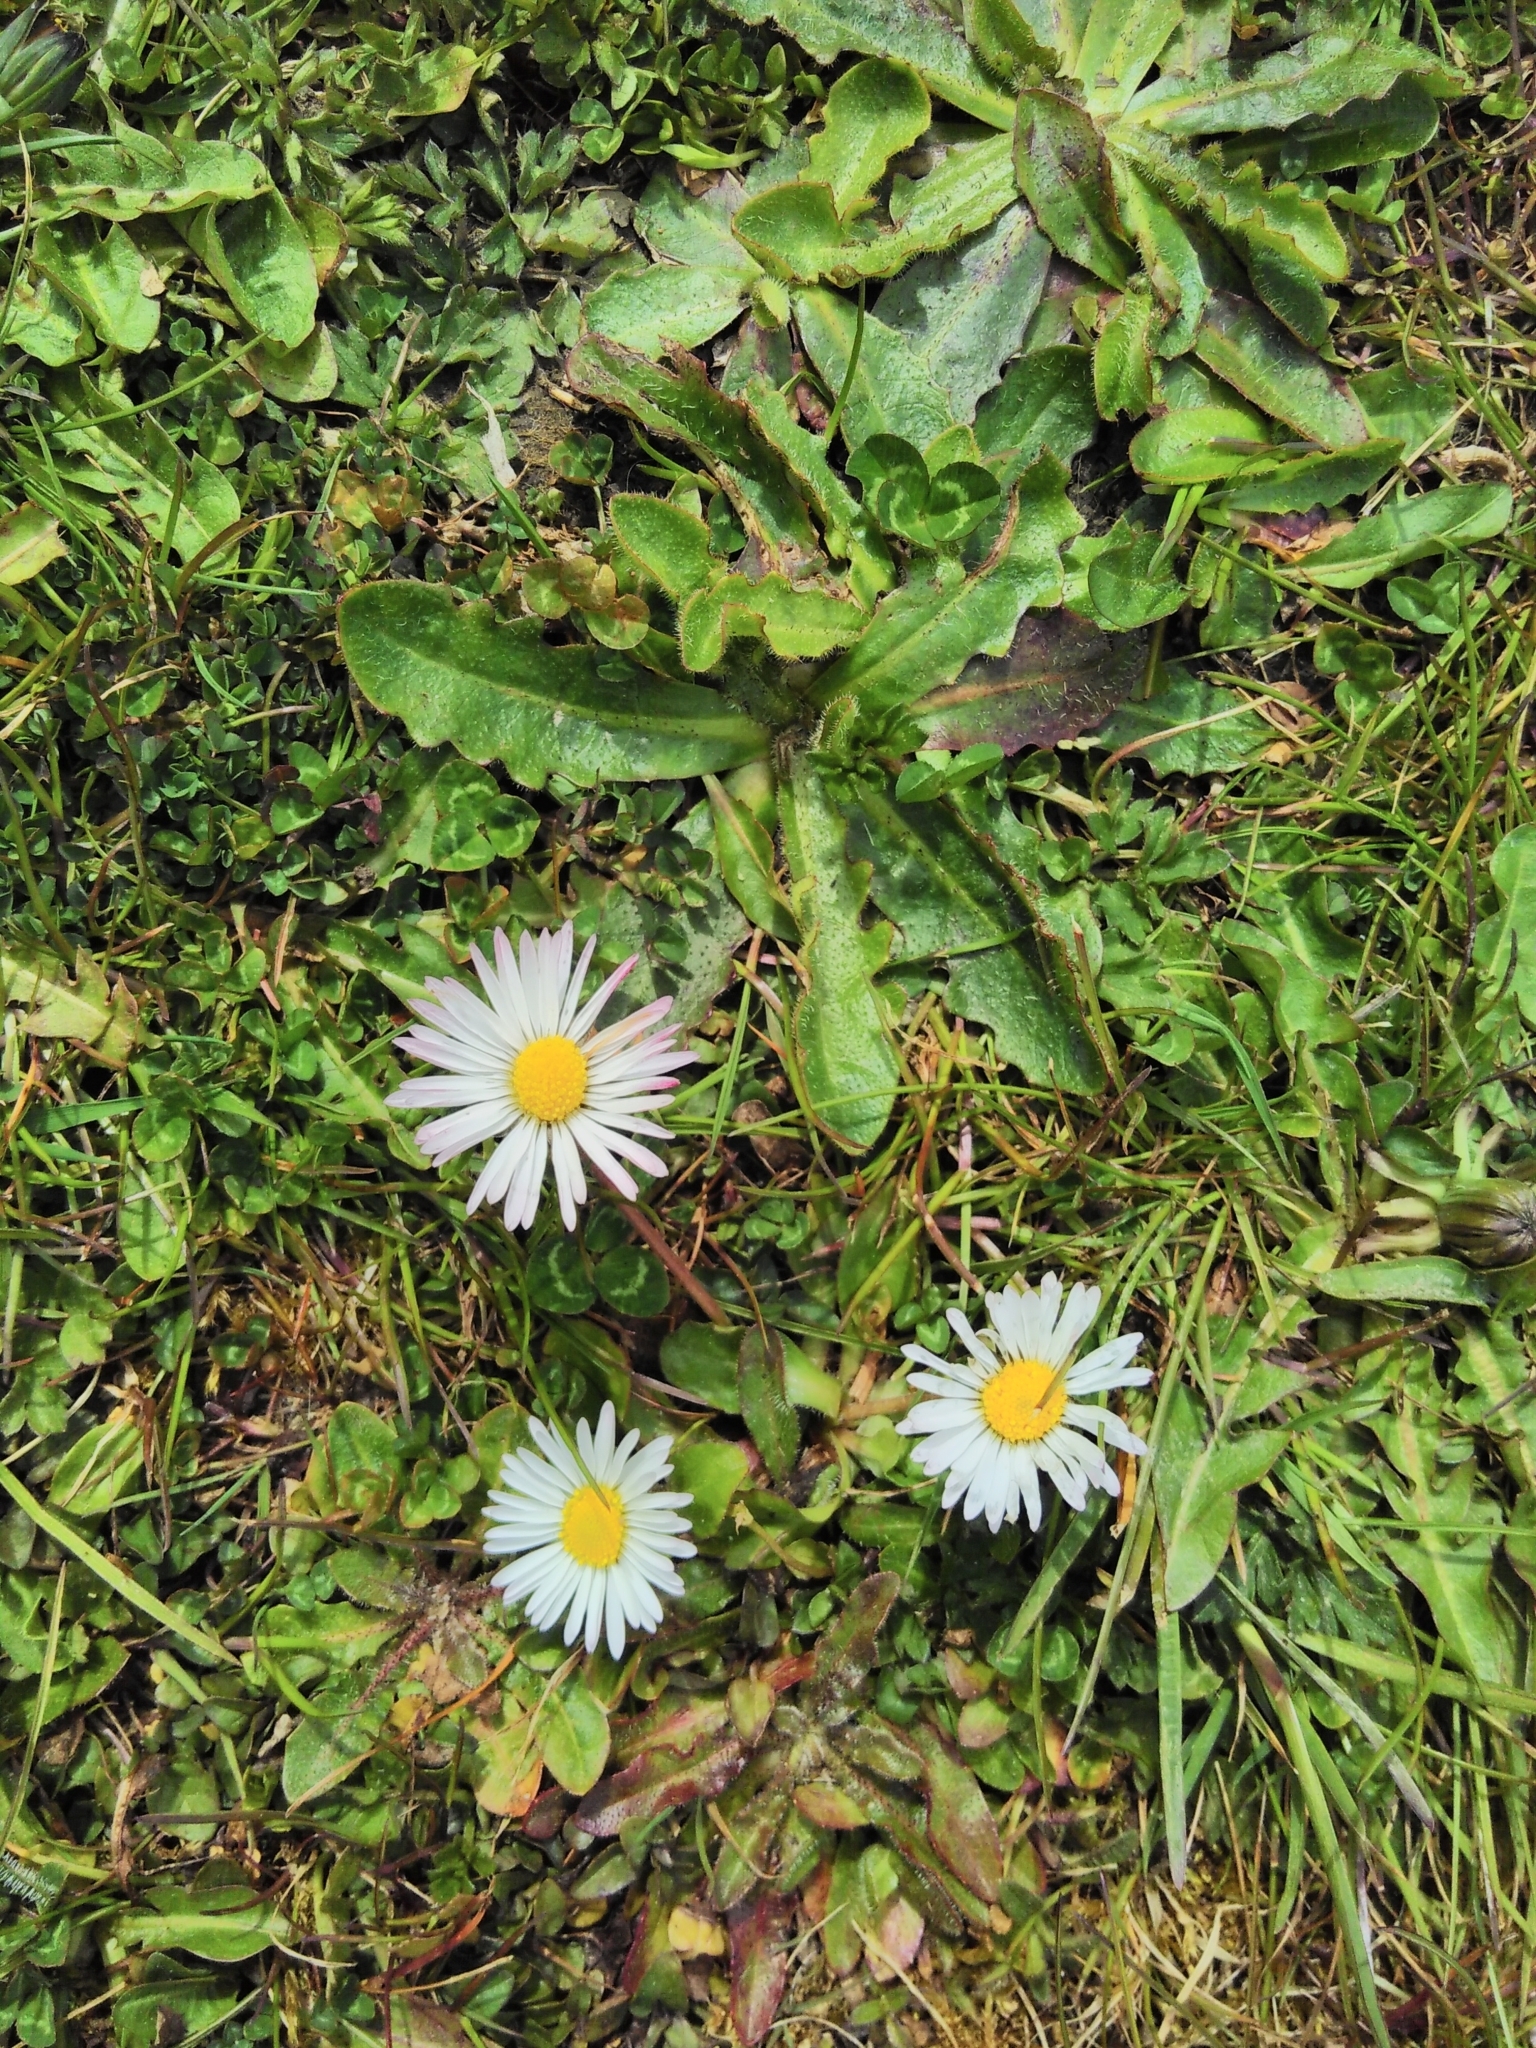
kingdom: Plantae
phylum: Tracheophyta
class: Magnoliopsida
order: Asterales
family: Asteraceae
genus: Bellis
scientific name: Bellis perennis
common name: Lawndaisy
